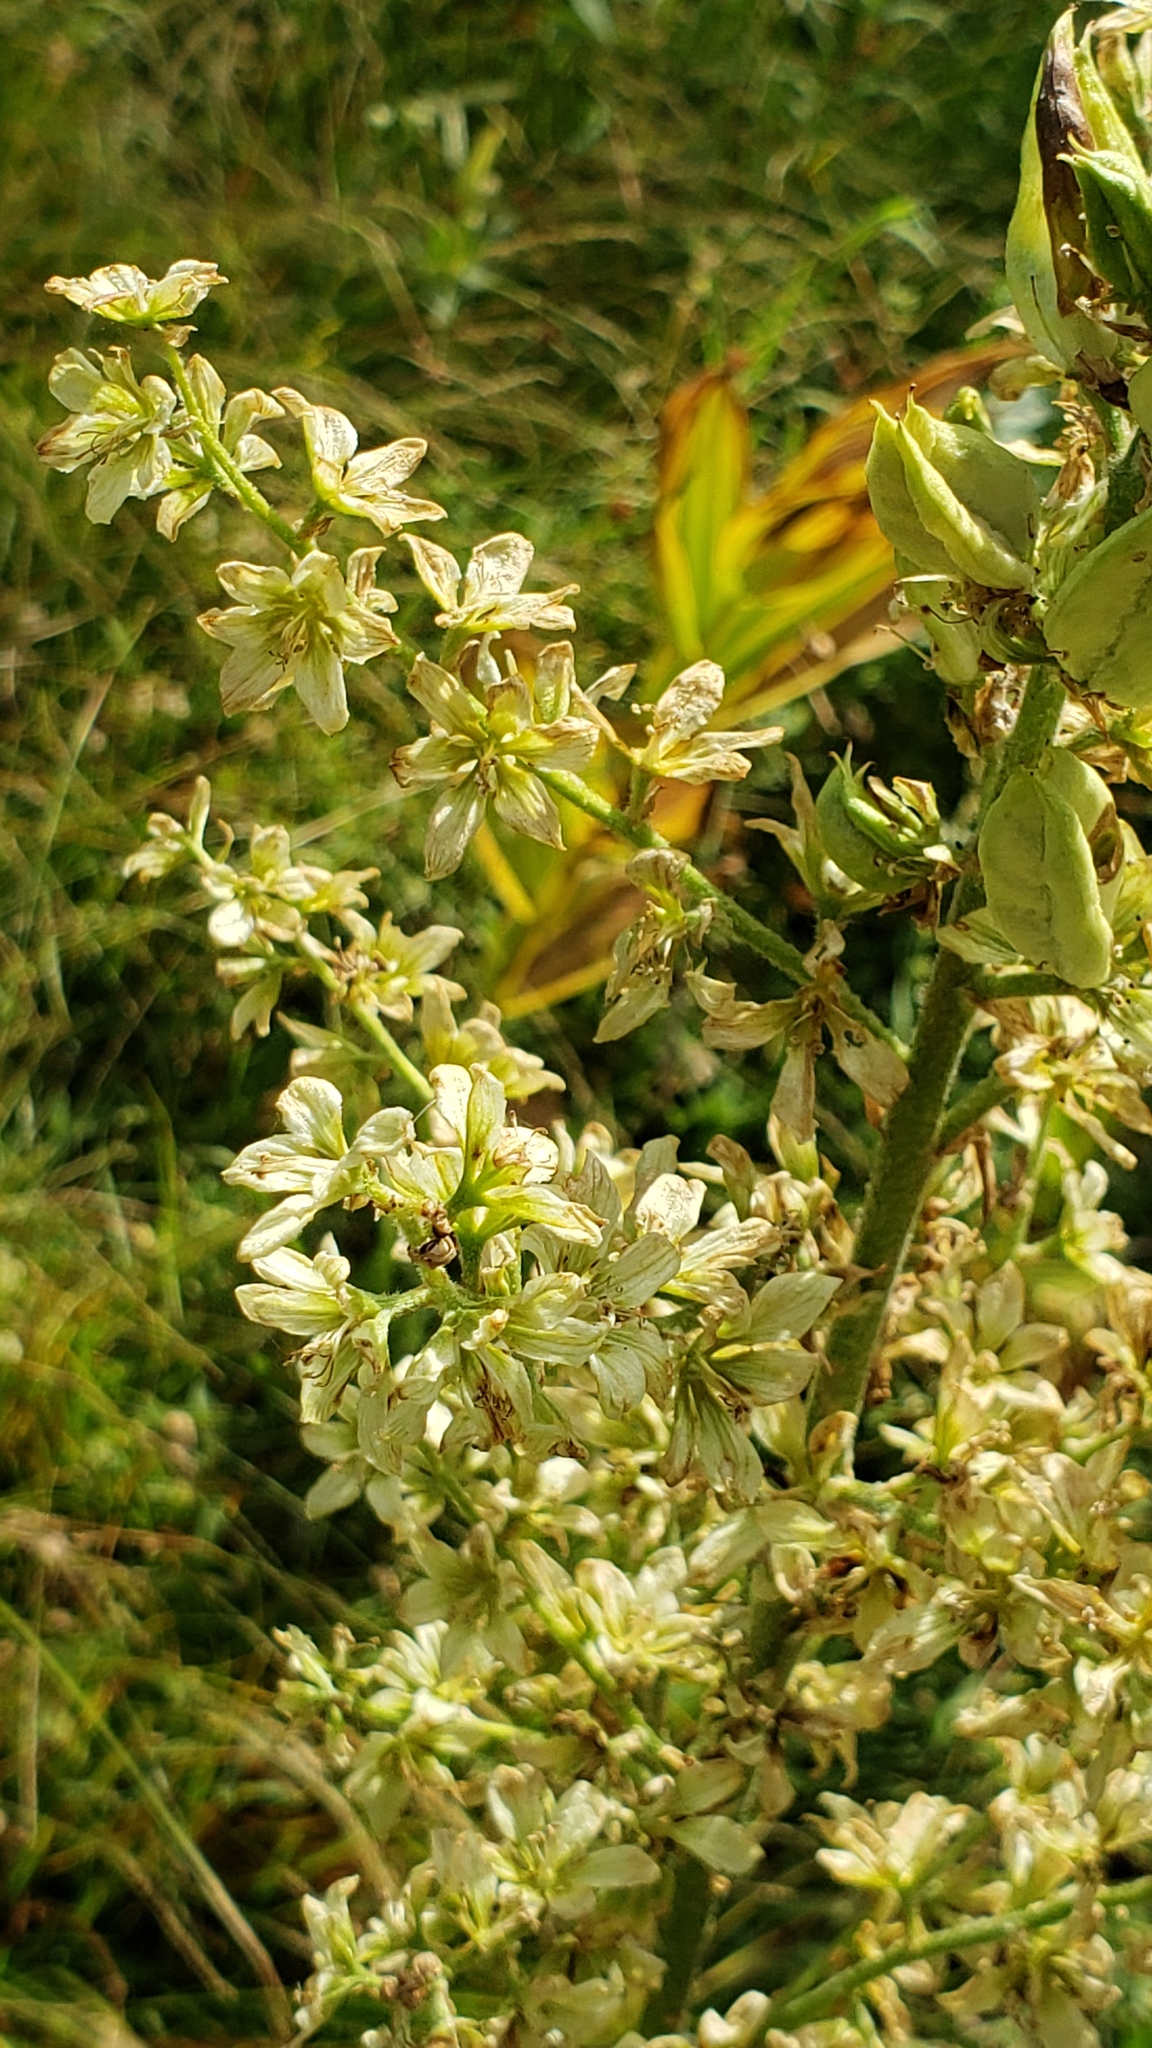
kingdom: Plantae
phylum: Tracheophyta
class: Liliopsida
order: Liliales
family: Melanthiaceae
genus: Veratrum
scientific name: Veratrum californicum
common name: California veratrum
